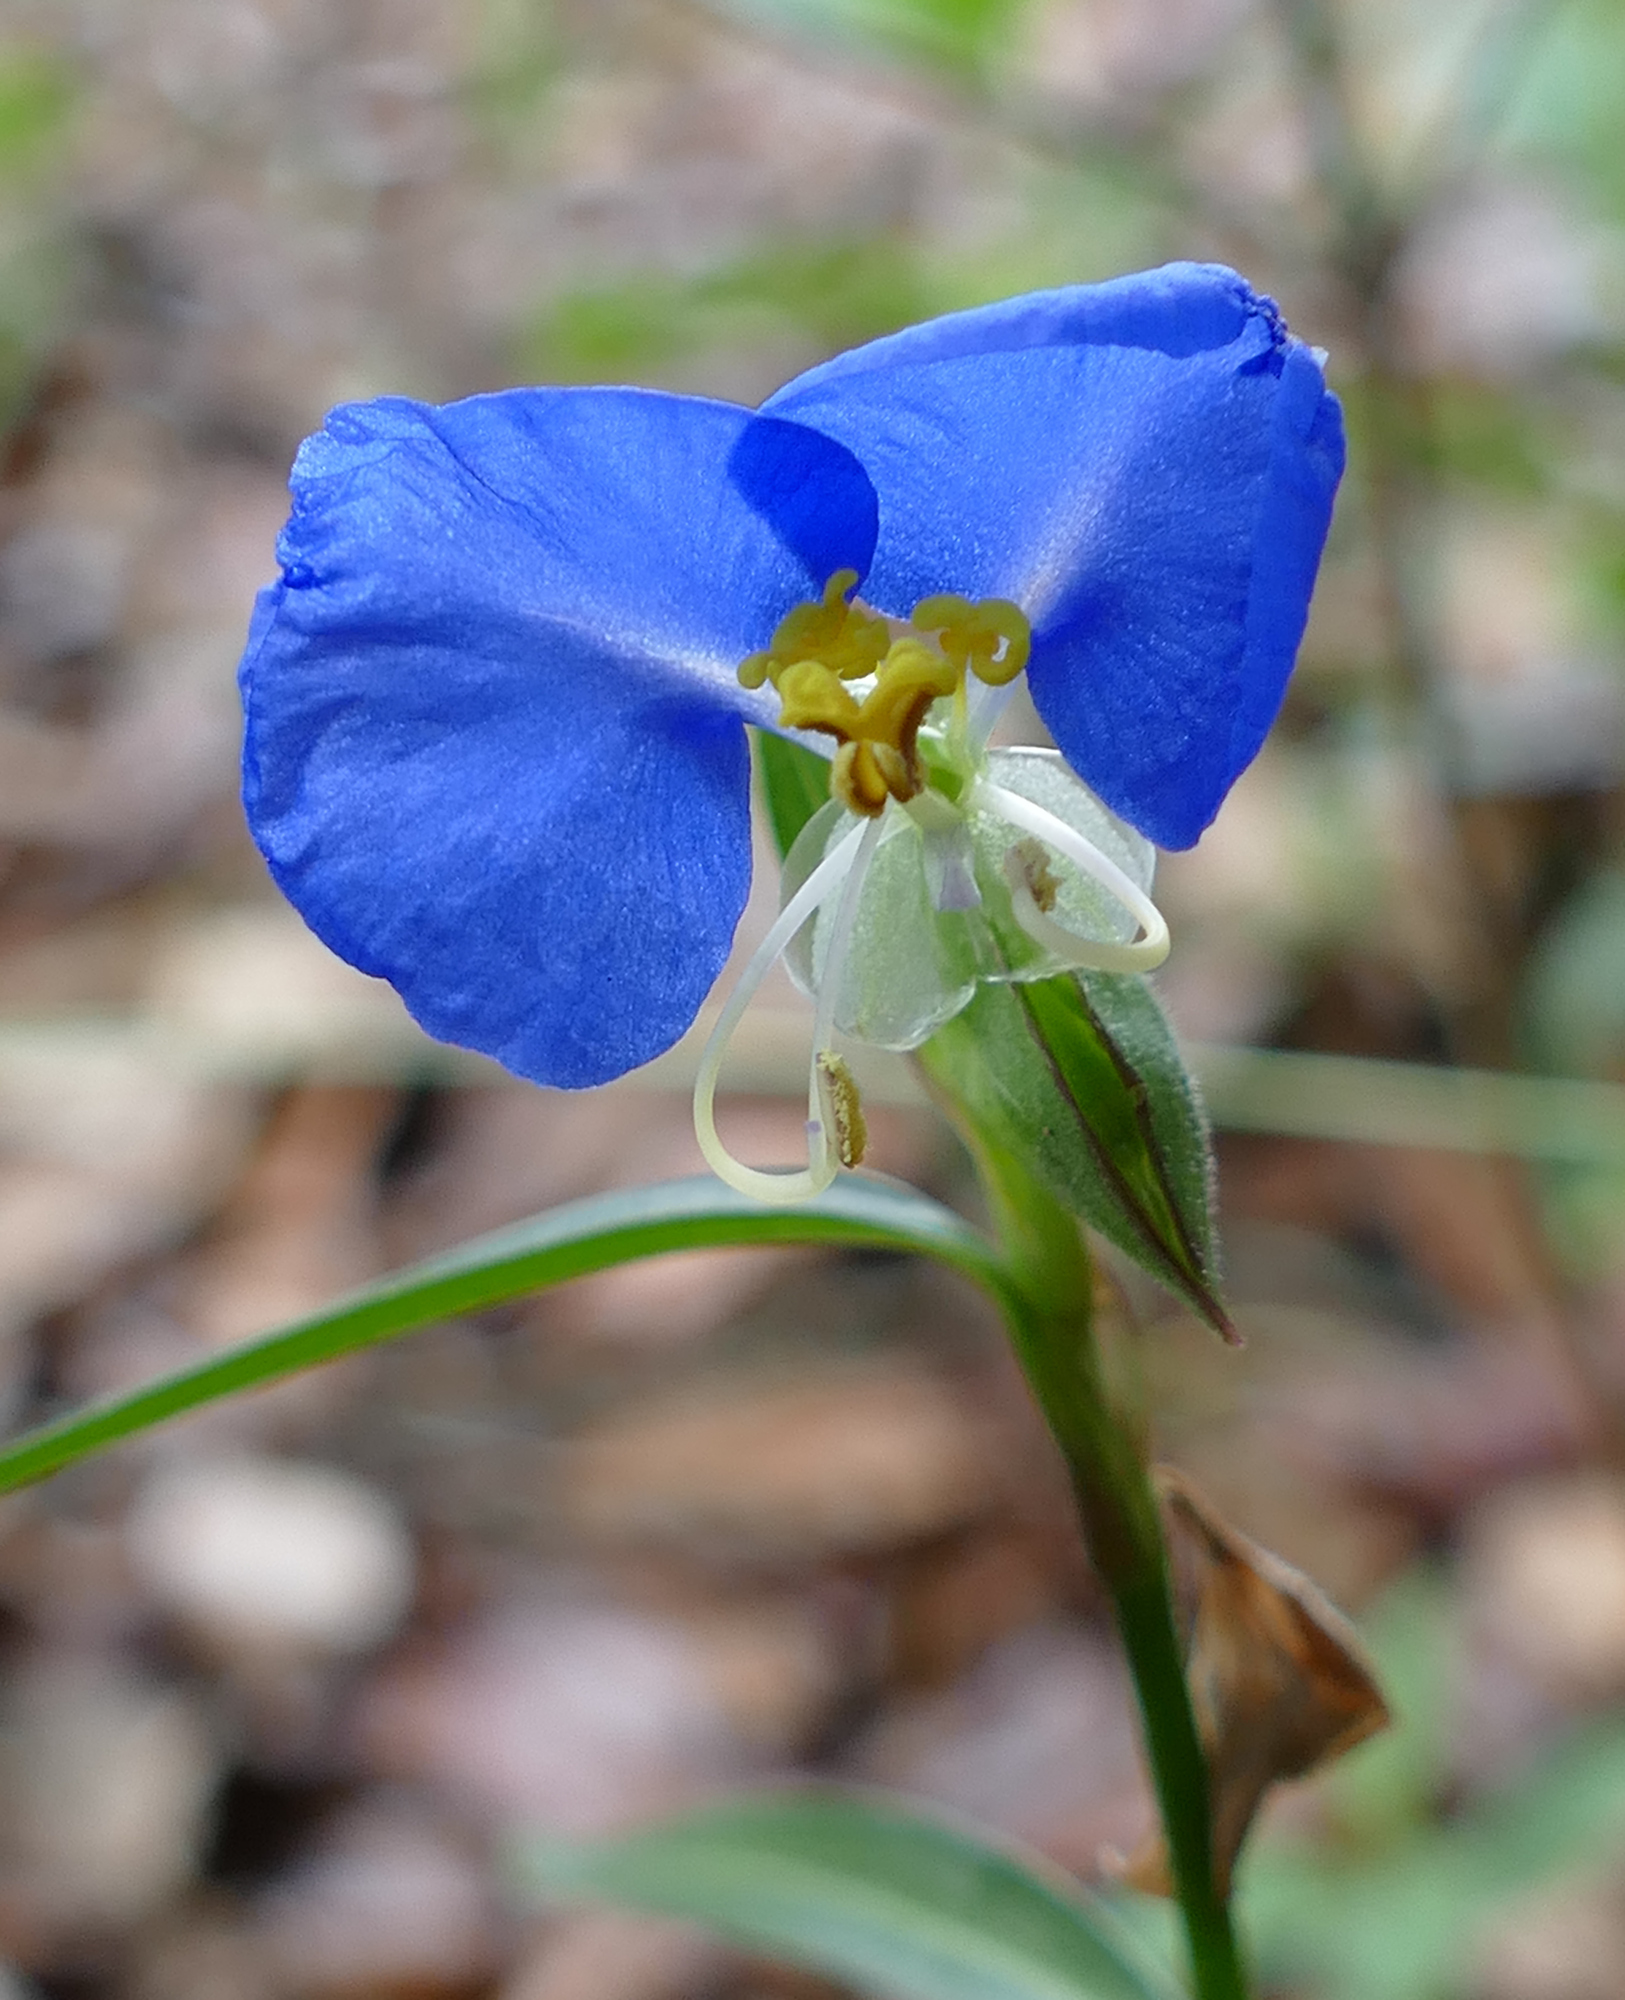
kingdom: Plantae
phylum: Tracheophyta
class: Liliopsida
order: Commelinales
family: Commelinaceae
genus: Commelina
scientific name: Commelina erecta
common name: Blousel blommetjie
